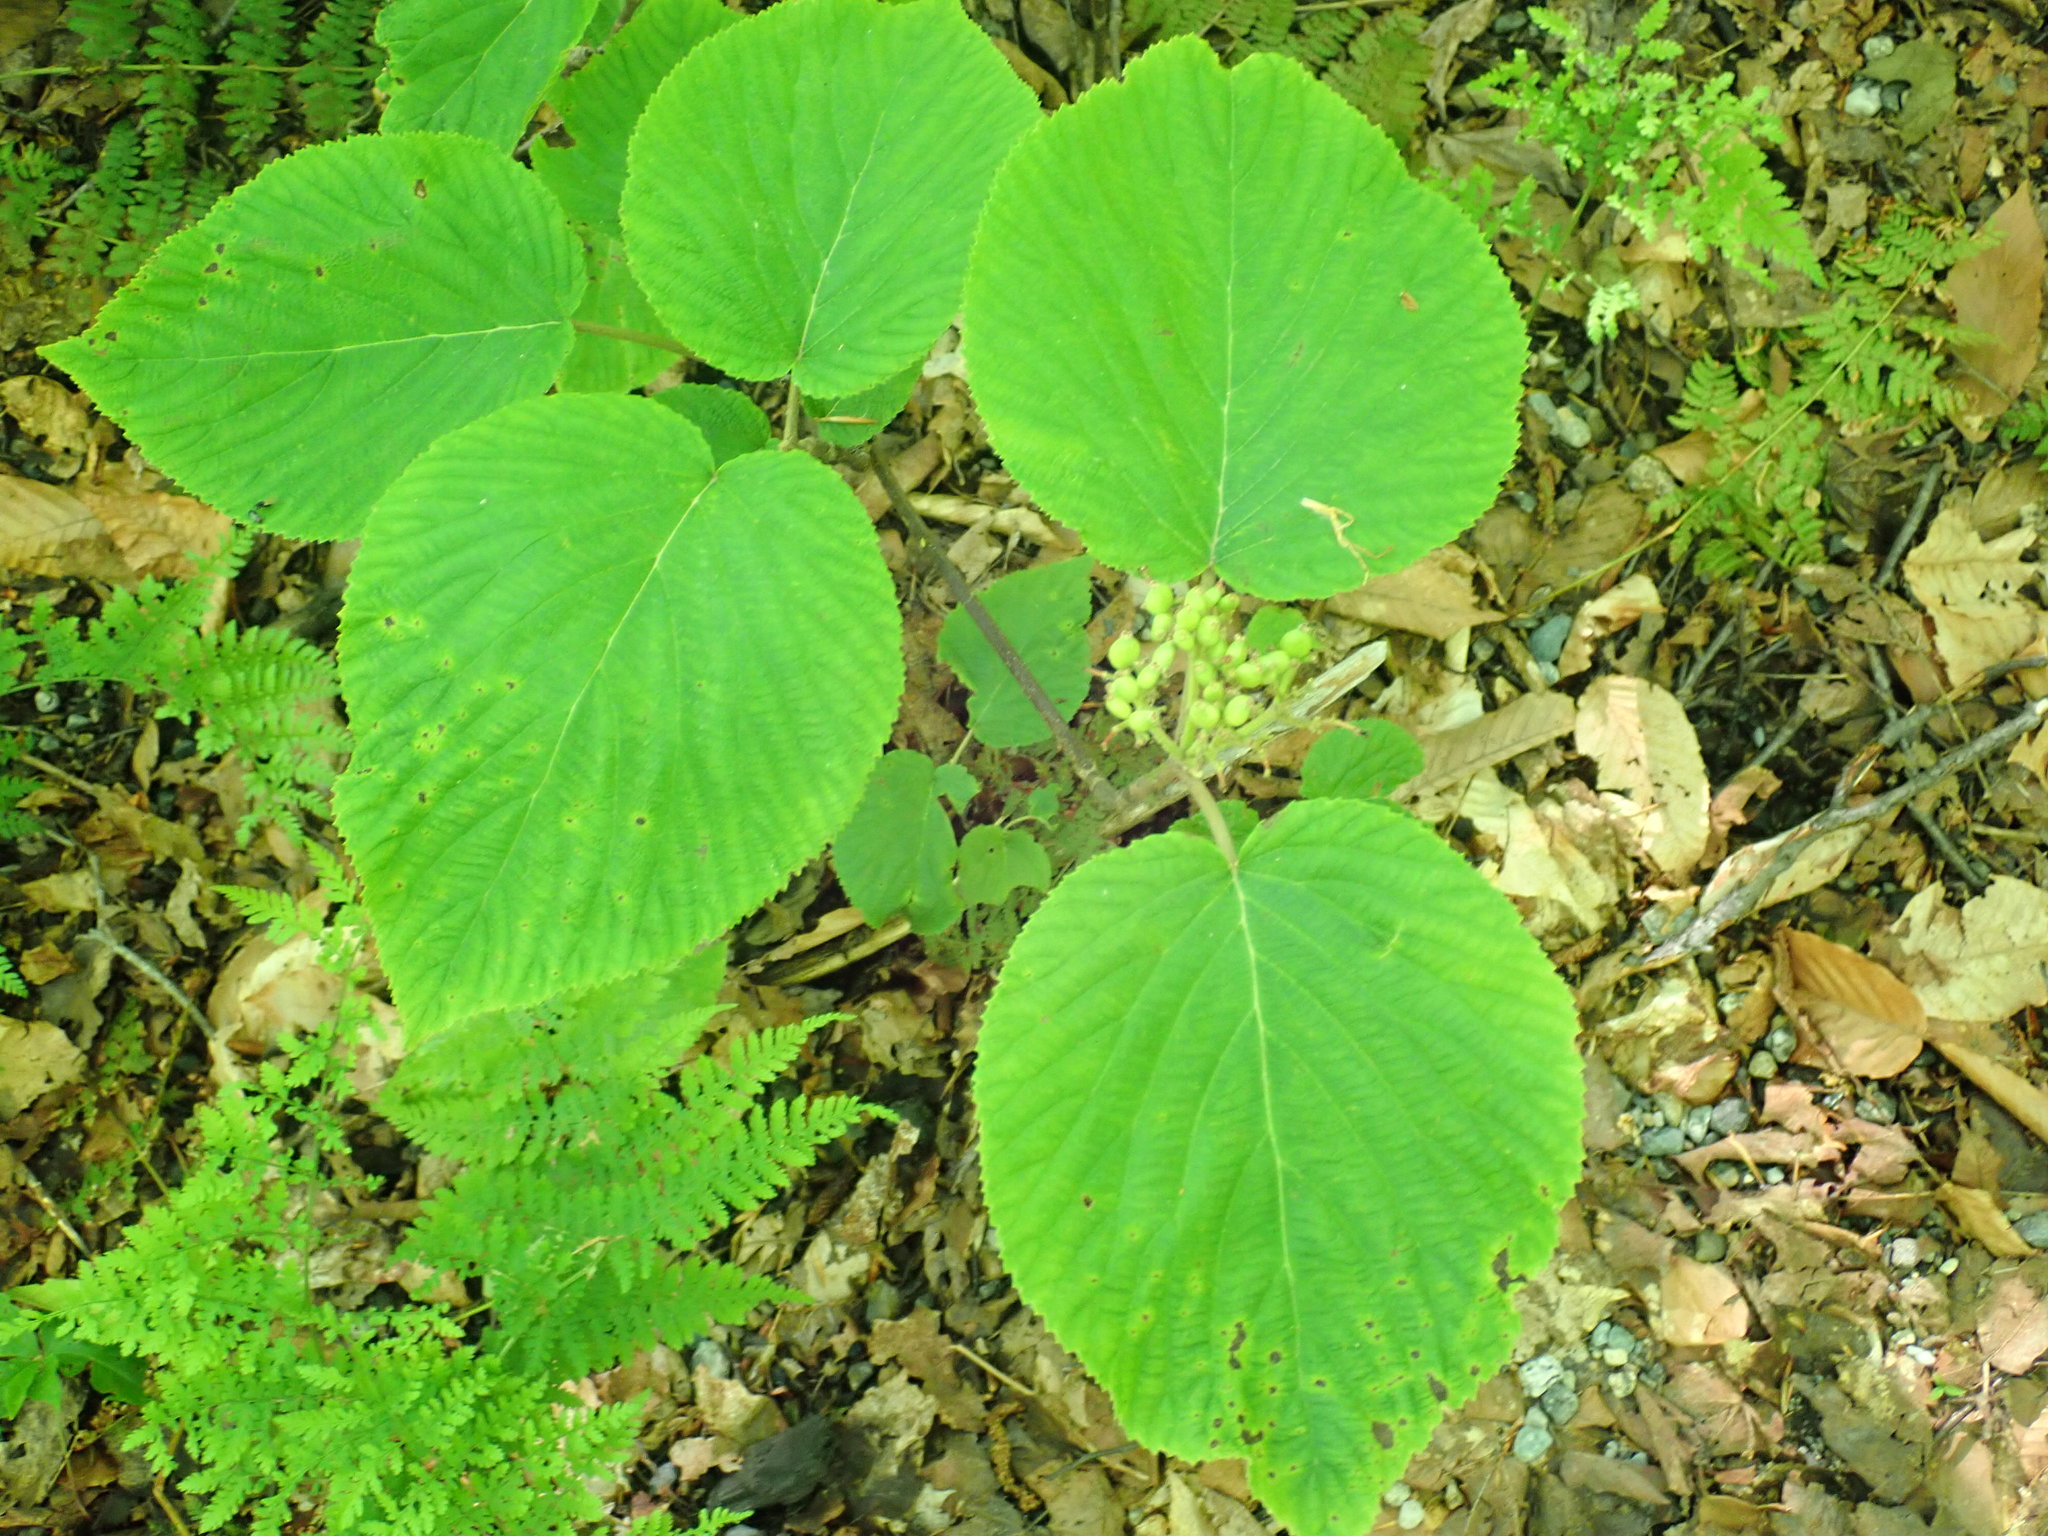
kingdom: Plantae
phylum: Tracheophyta
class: Magnoliopsida
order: Dipsacales
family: Viburnaceae
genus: Viburnum
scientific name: Viburnum lantanoides
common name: Hobblebush
